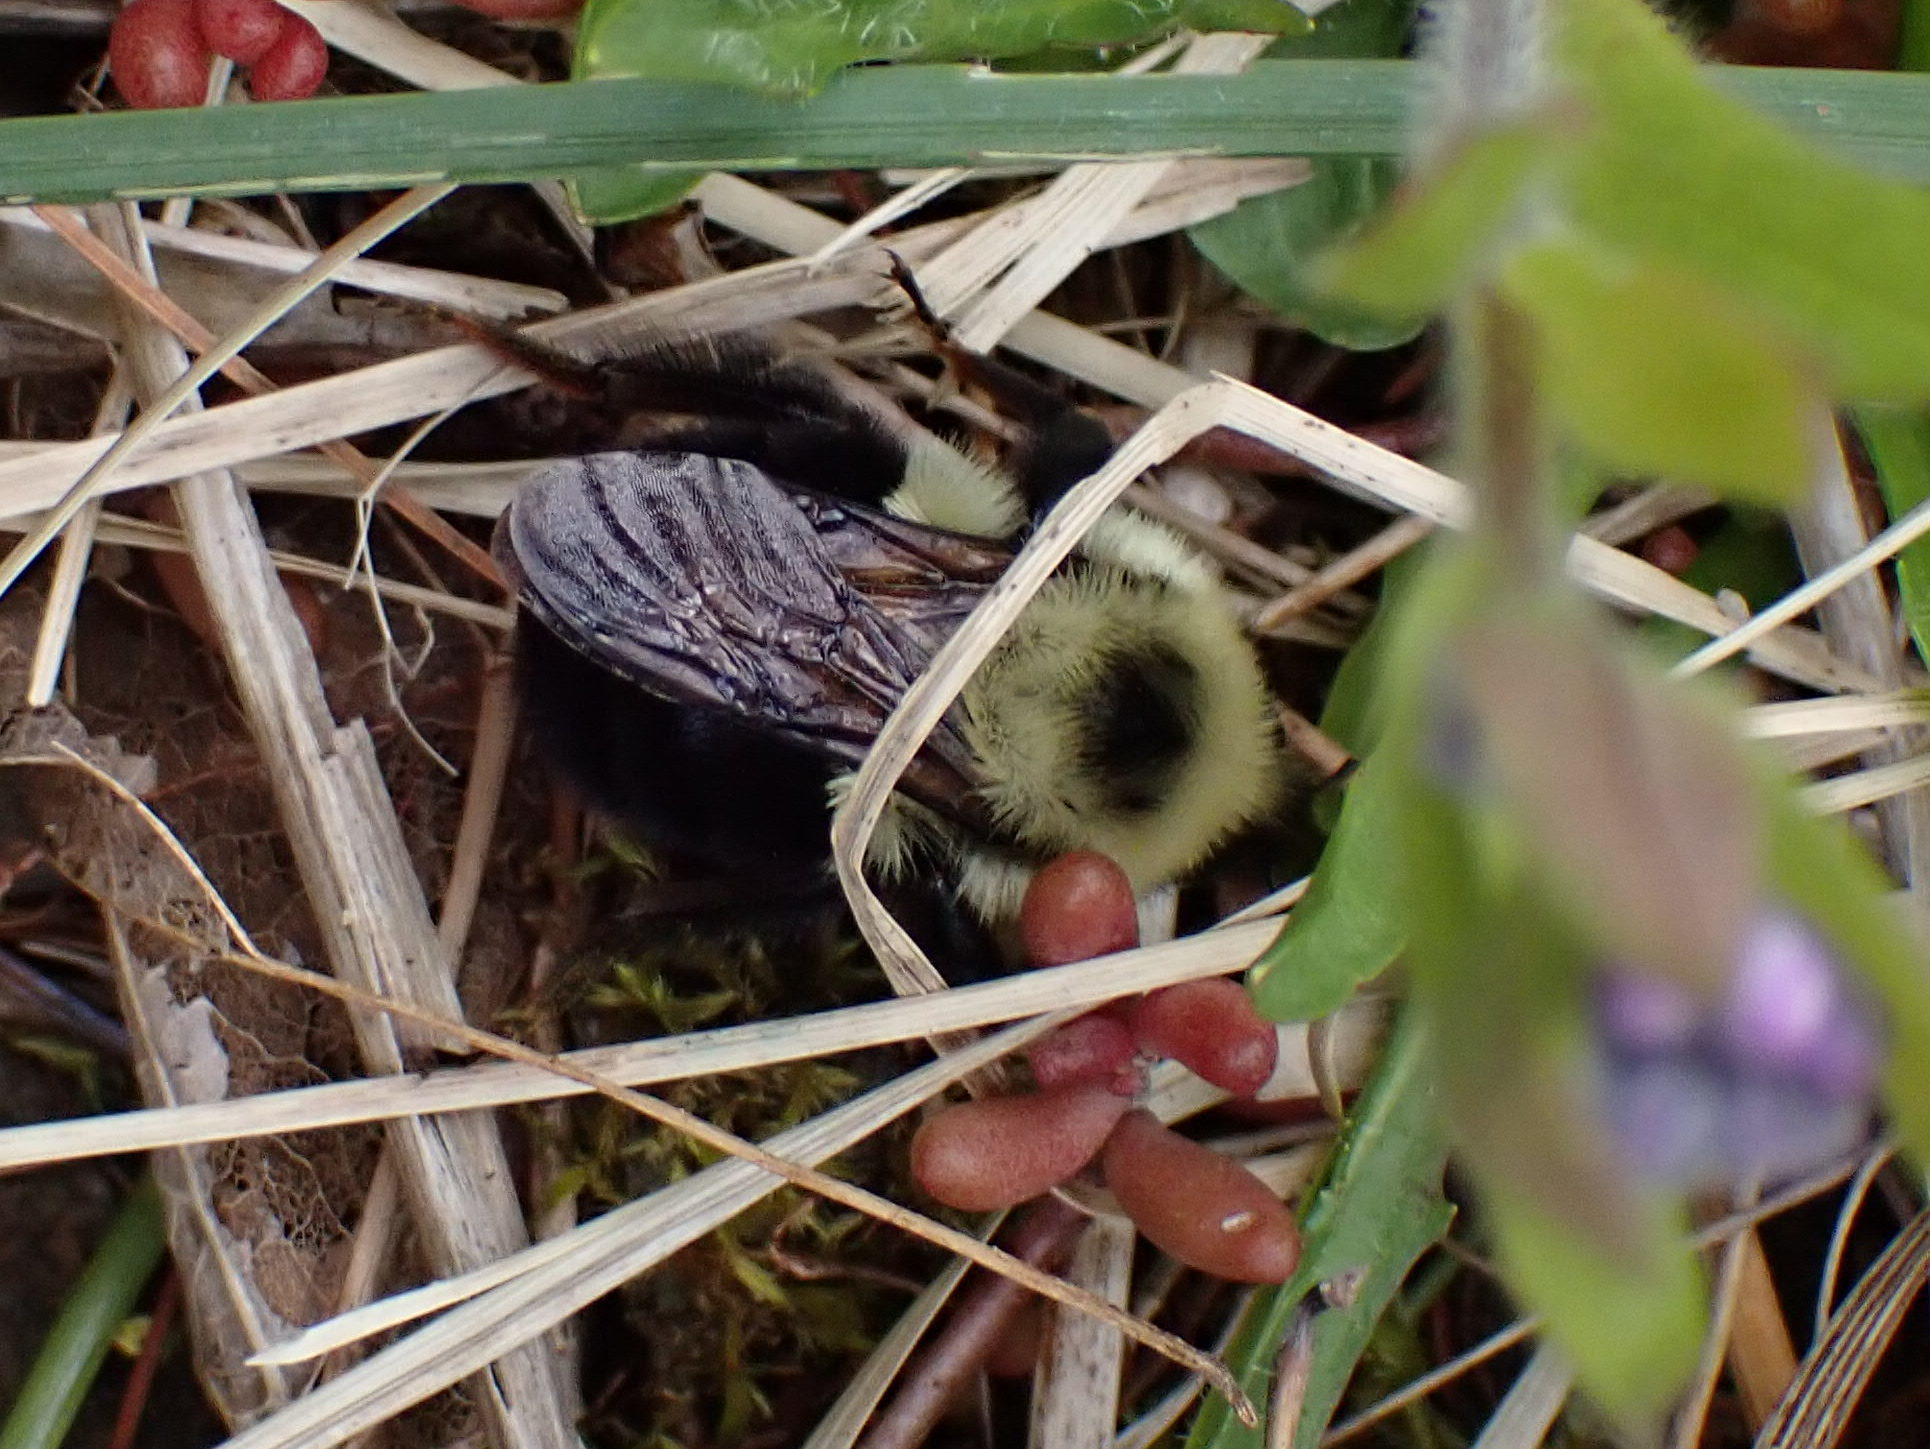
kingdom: Animalia
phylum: Arthropoda
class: Insecta
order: Hymenoptera
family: Apidae
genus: Bombus
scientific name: Bombus bimaculatus
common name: Two-spotted bumble bee
